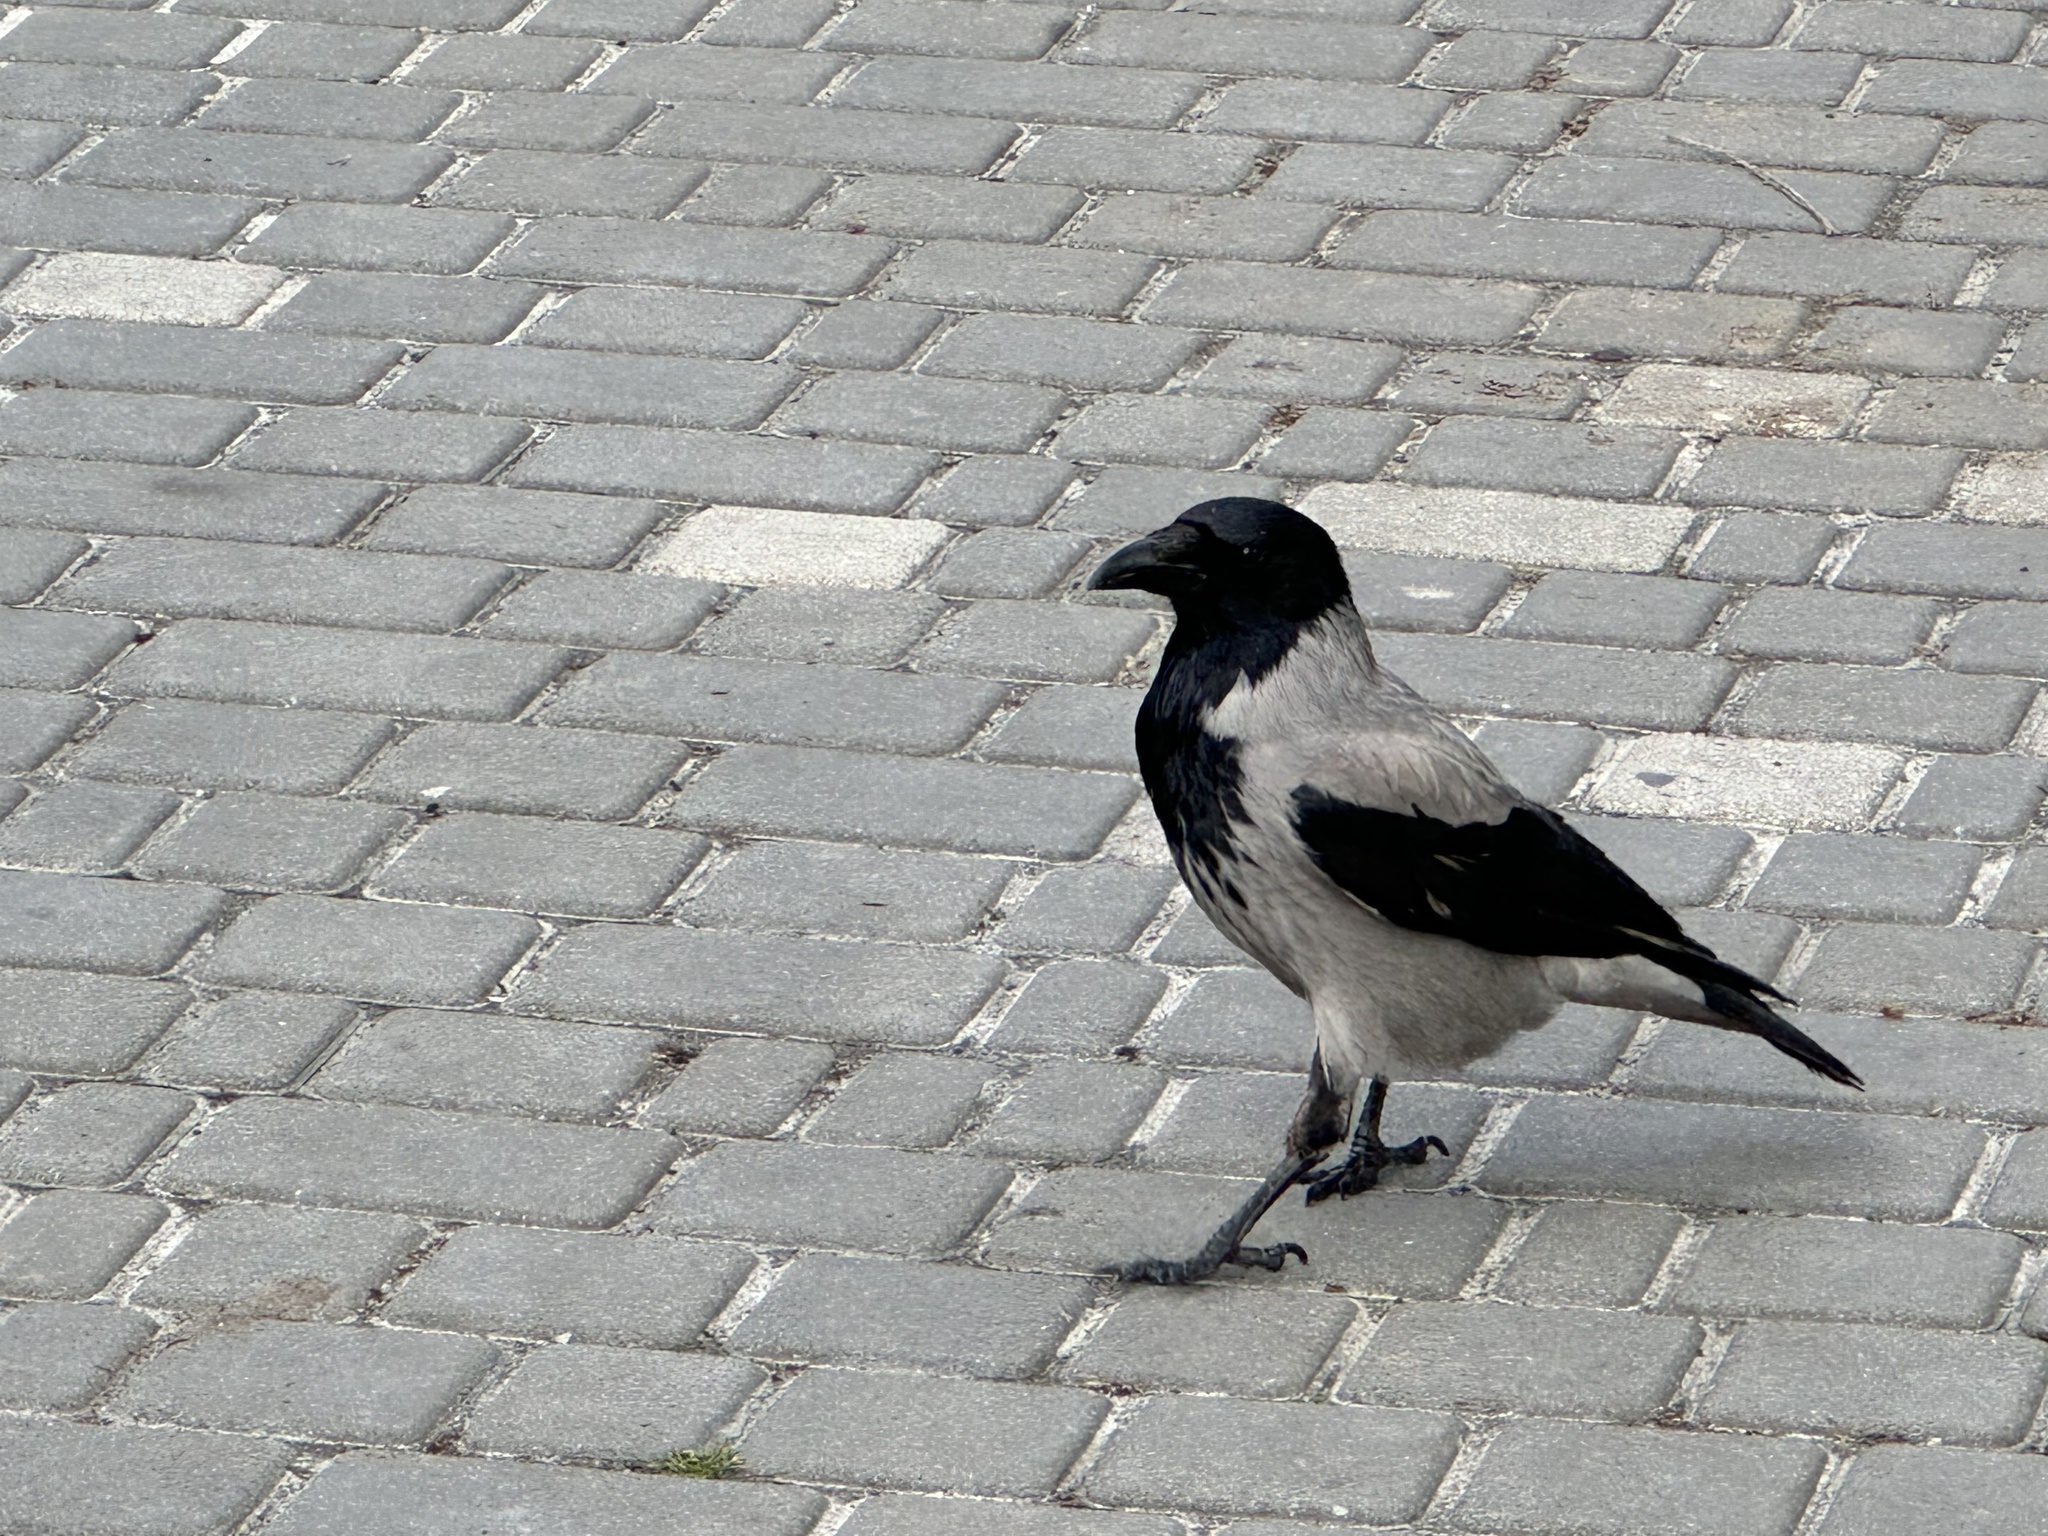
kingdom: Animalia
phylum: Chordata
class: Aves
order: Passeriformes
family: Corvidae
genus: Corvus
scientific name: Corvus cornix
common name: Hooded crow
